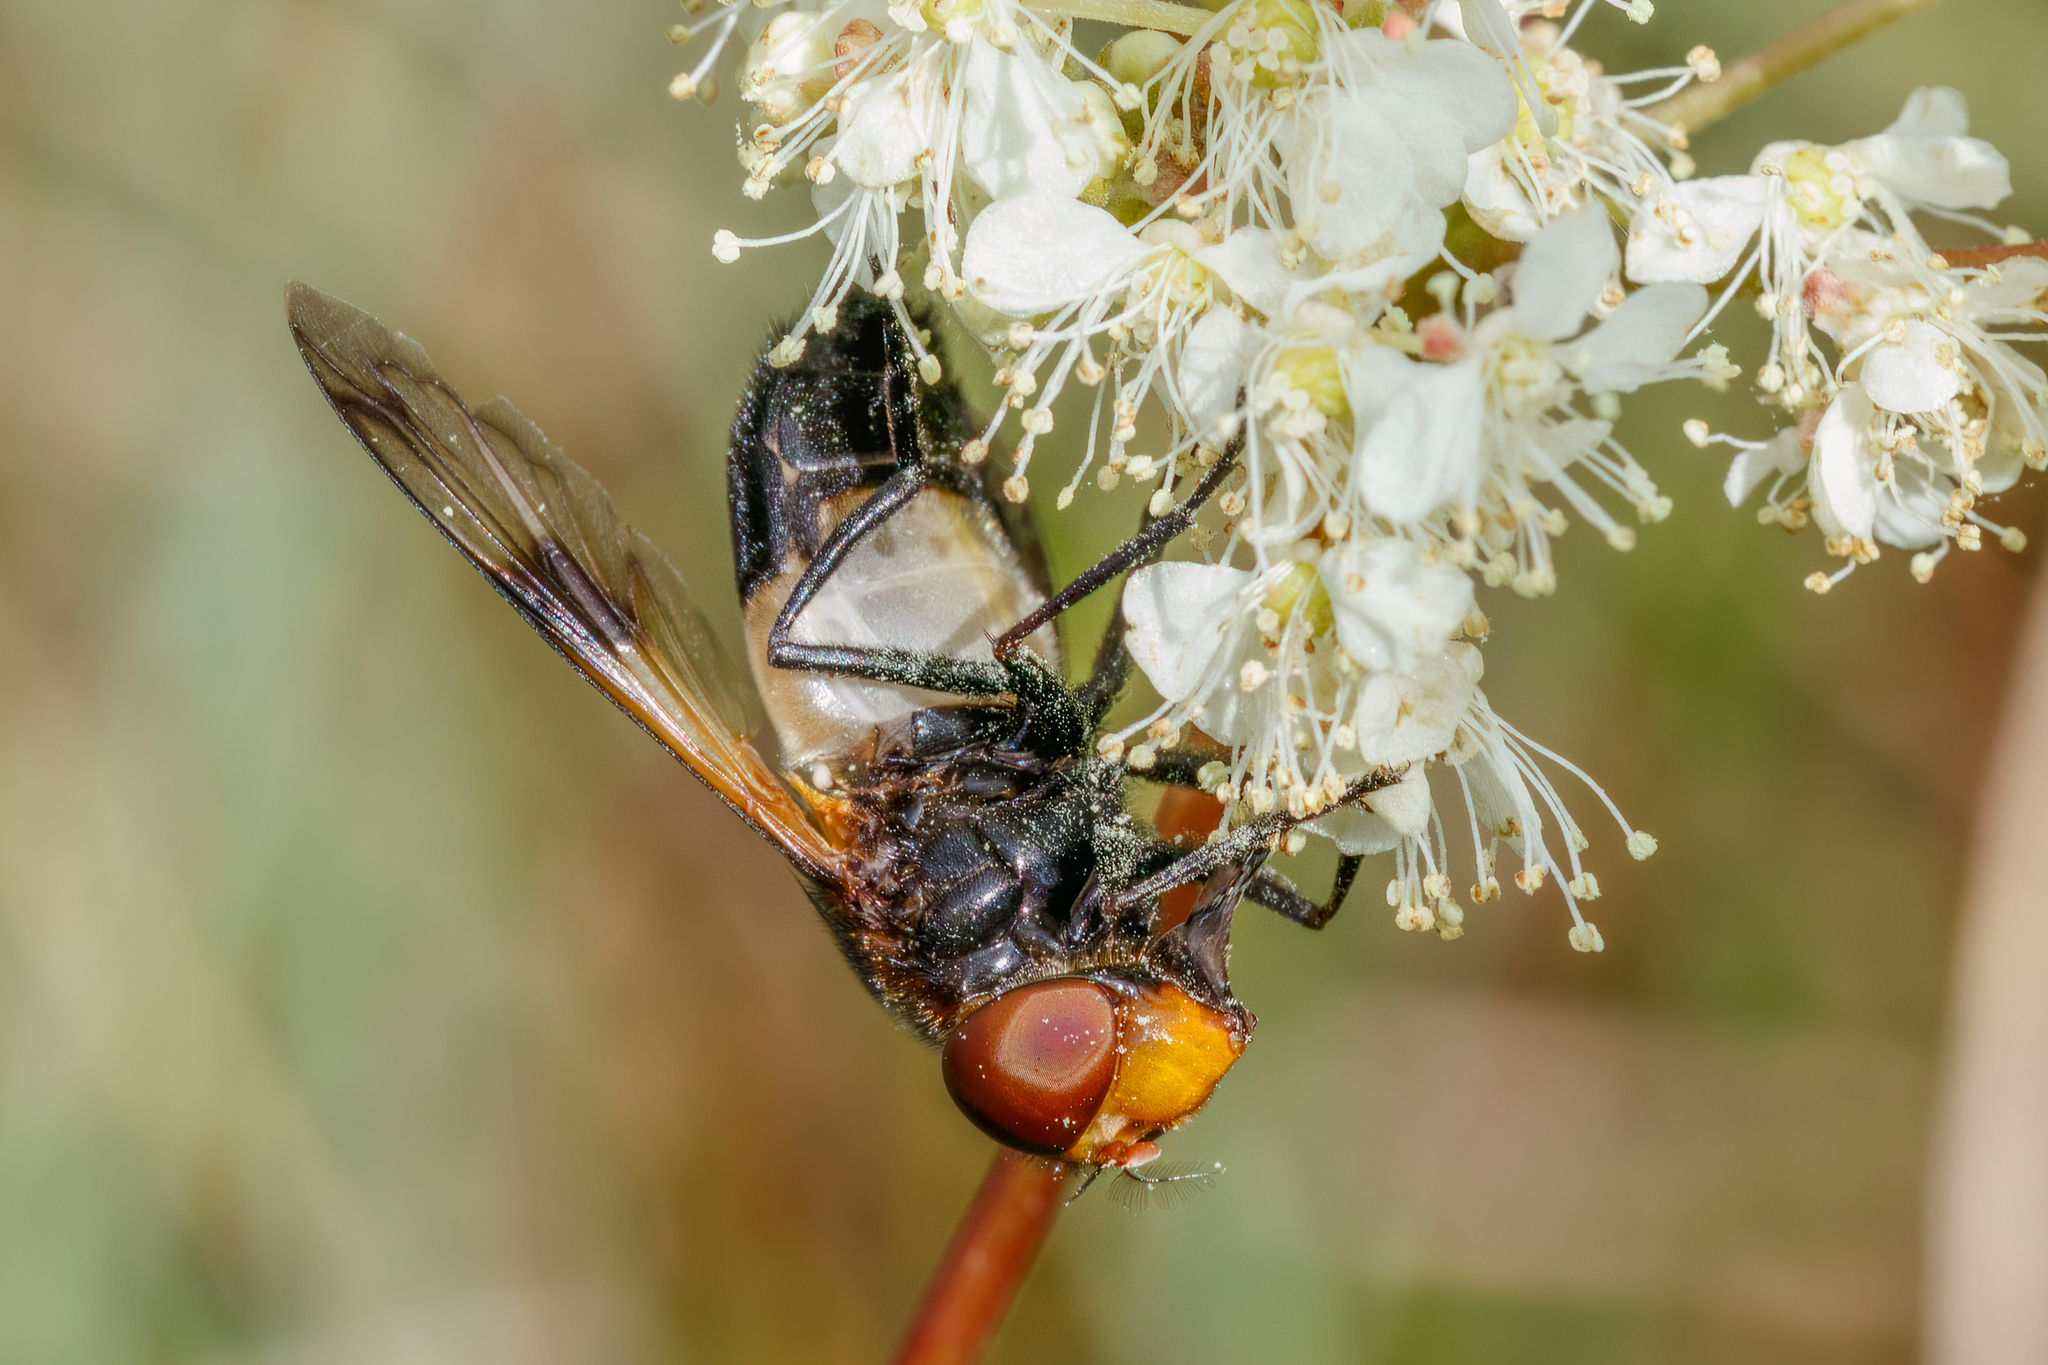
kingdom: Animalia
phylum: Arthropoda
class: Insecta
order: Diptera
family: Syrphidae
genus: Volucella
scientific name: Volucella pellucens
